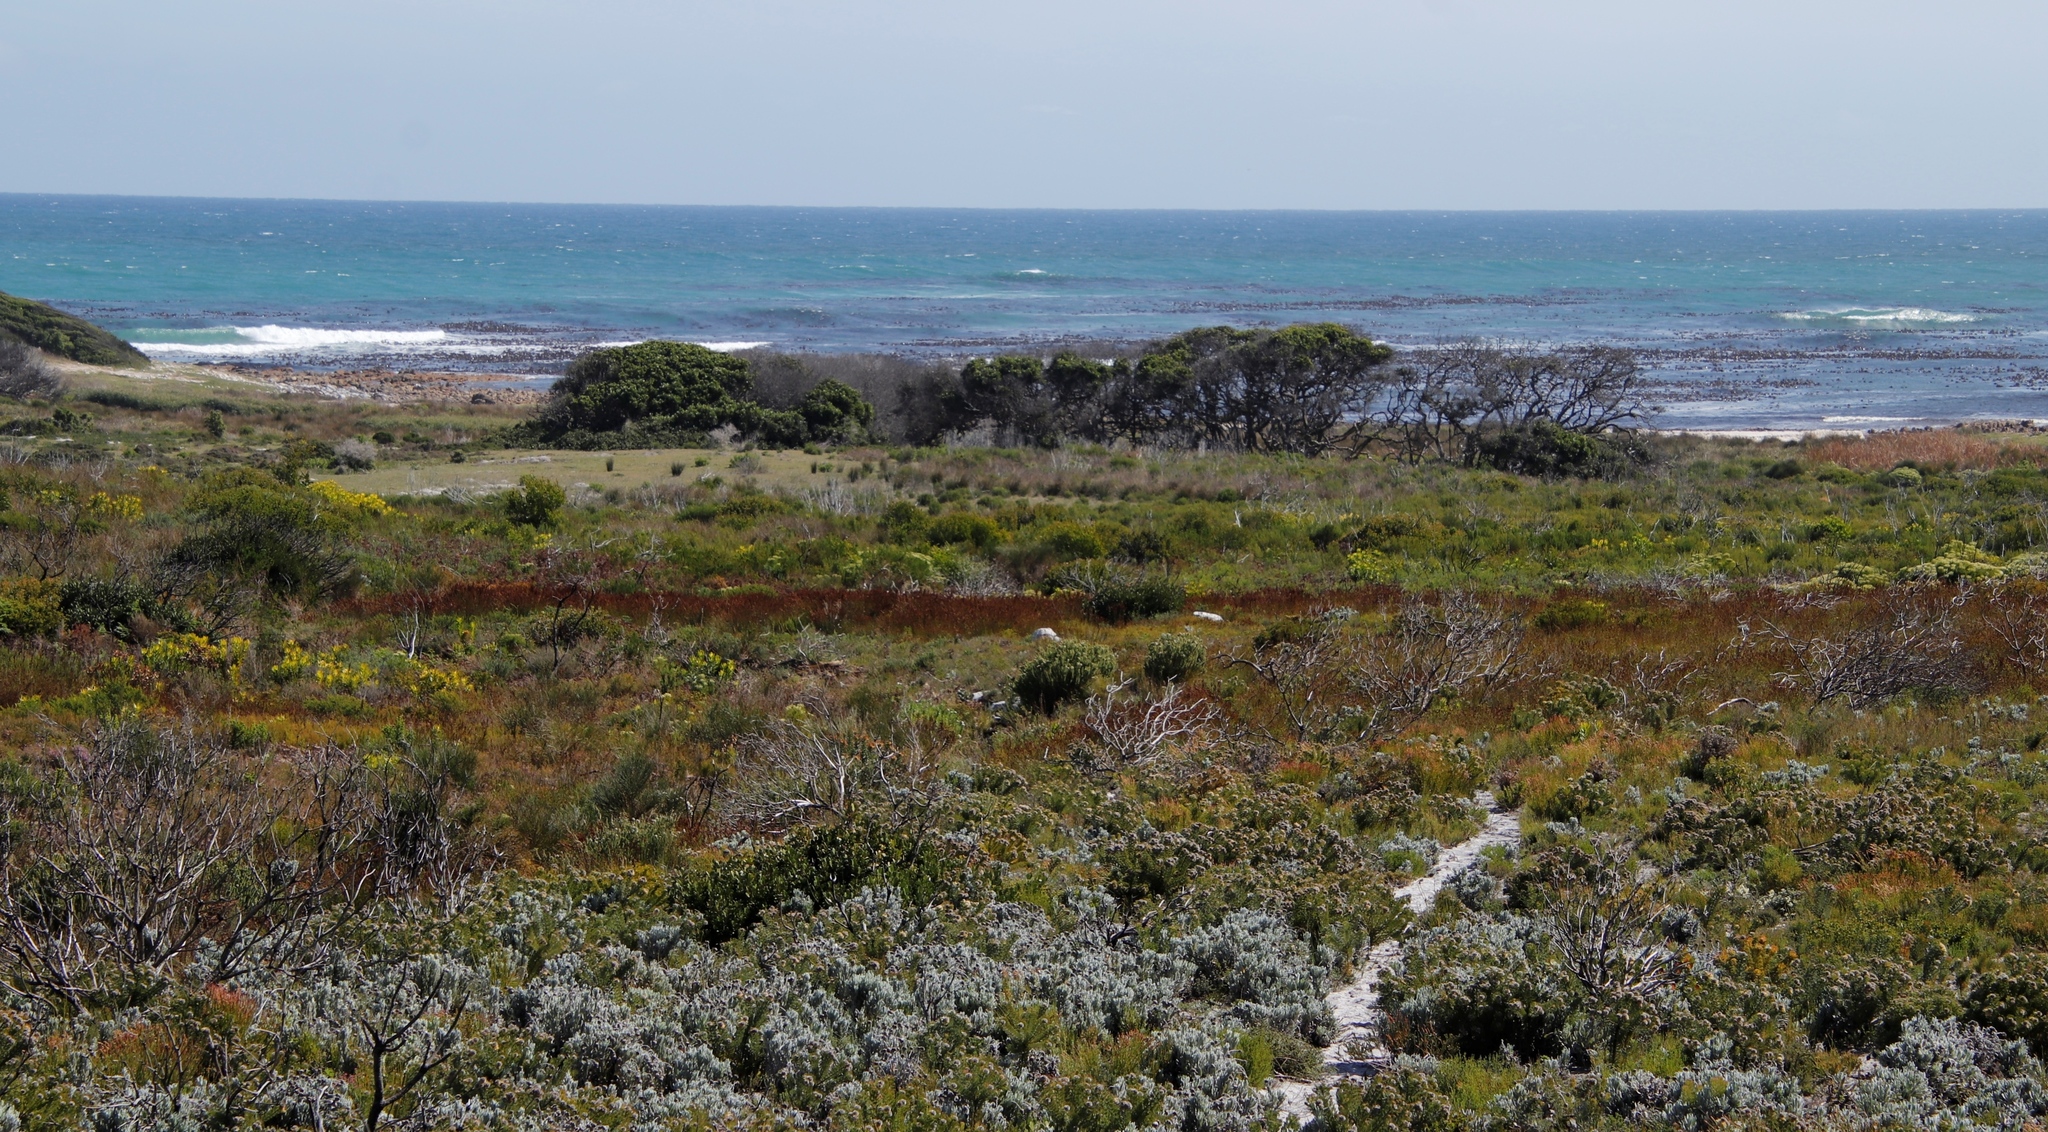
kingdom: Plantae
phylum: Tracheophyta
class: Magnoliopsida
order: Ericales
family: Sapotaceae
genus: Sideroxylon
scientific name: Sideroxylon inerme
